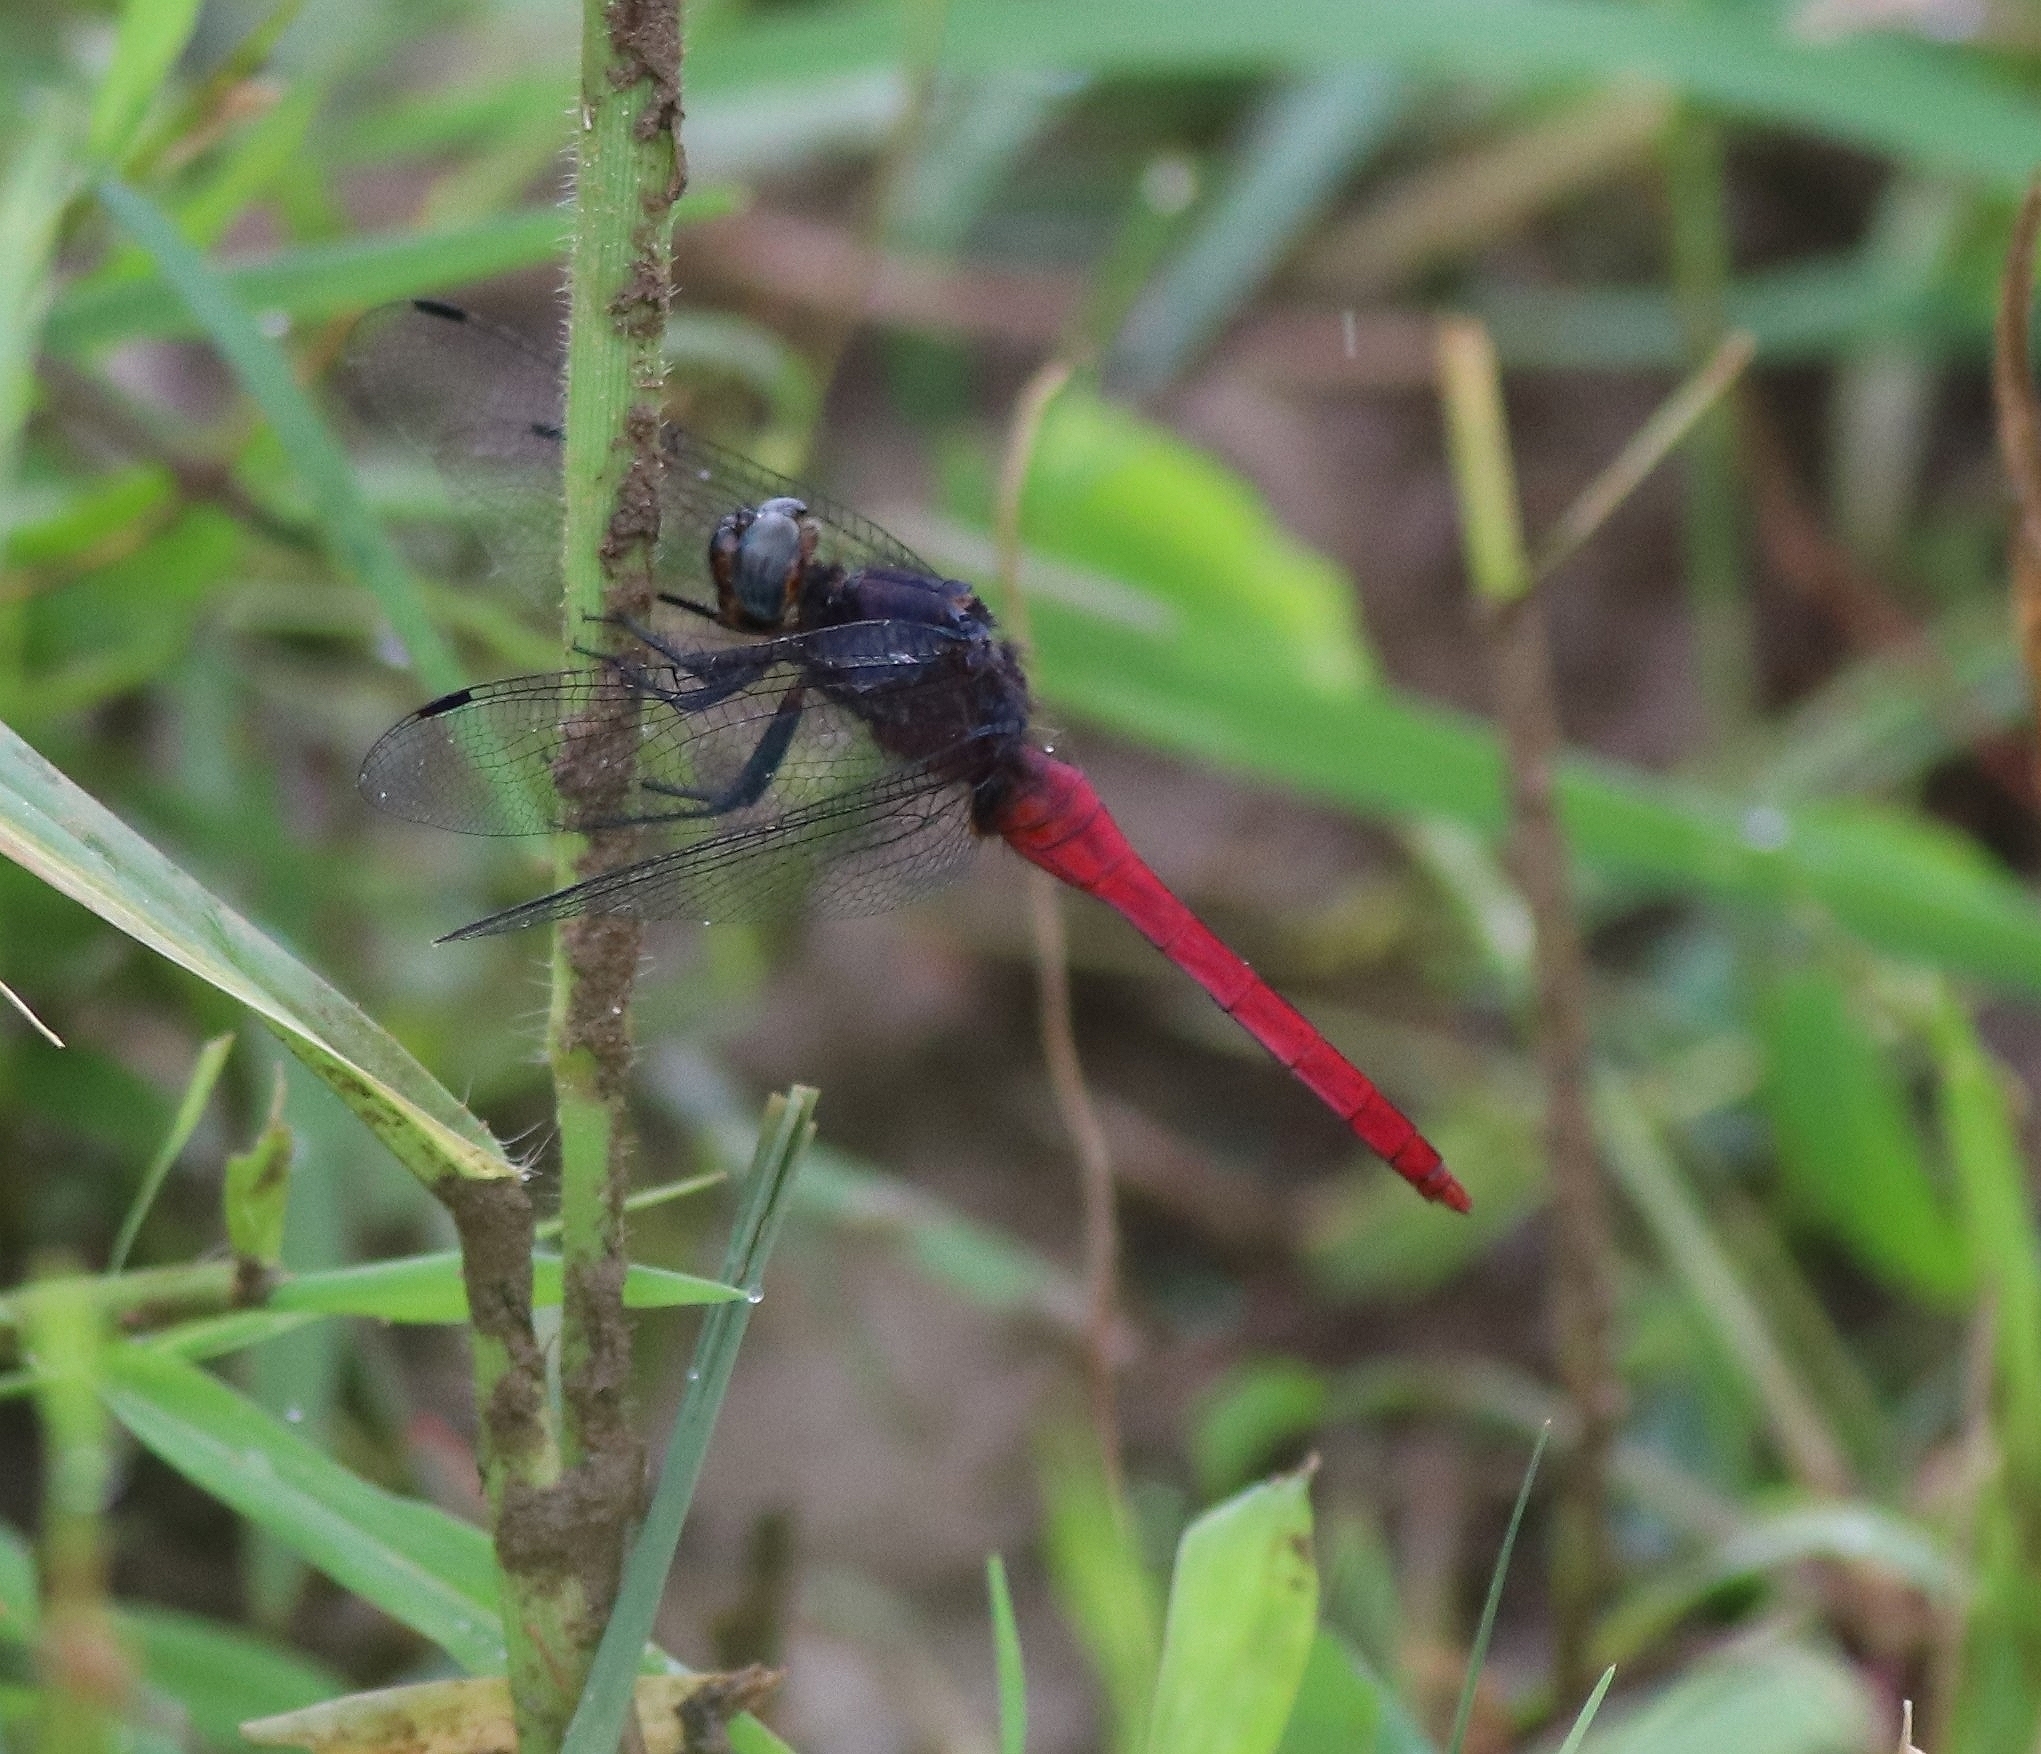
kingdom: Animalia
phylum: Arthropoda
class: Insecta
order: Odonata
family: Libellulidae
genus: Orthetrum
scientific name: Orthetrum pruinosum
